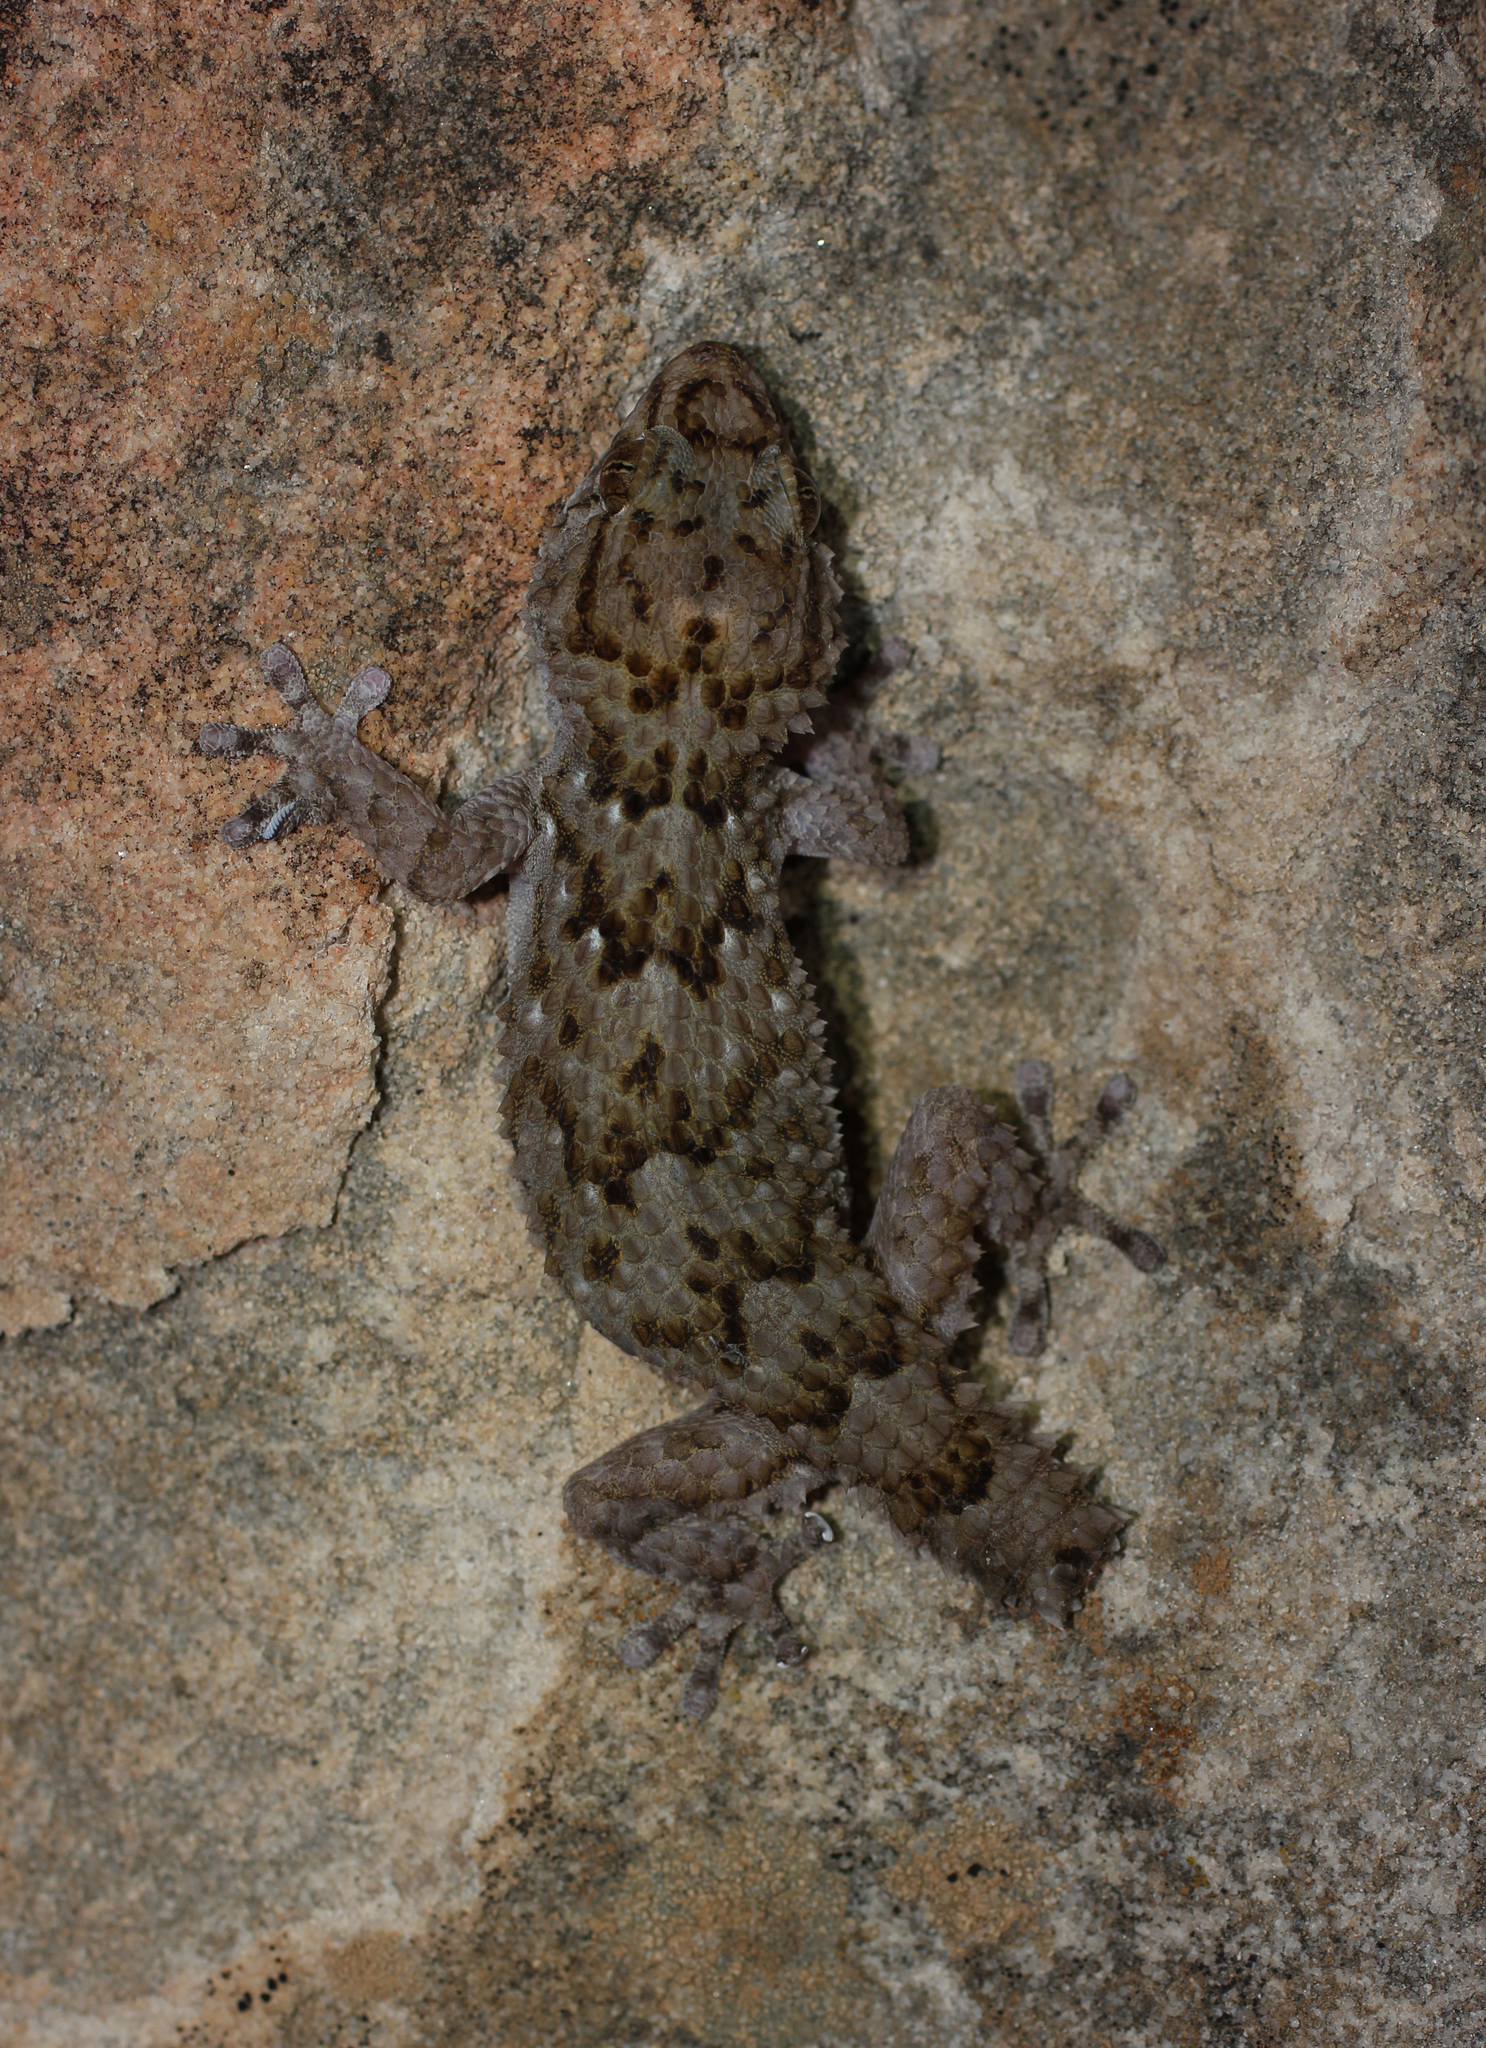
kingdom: Animalia
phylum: Chordata
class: Squamata
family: Gekkonidae
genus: Chondrodactylus
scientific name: Chondrodactylus bibronii
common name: Bibron's gecko
